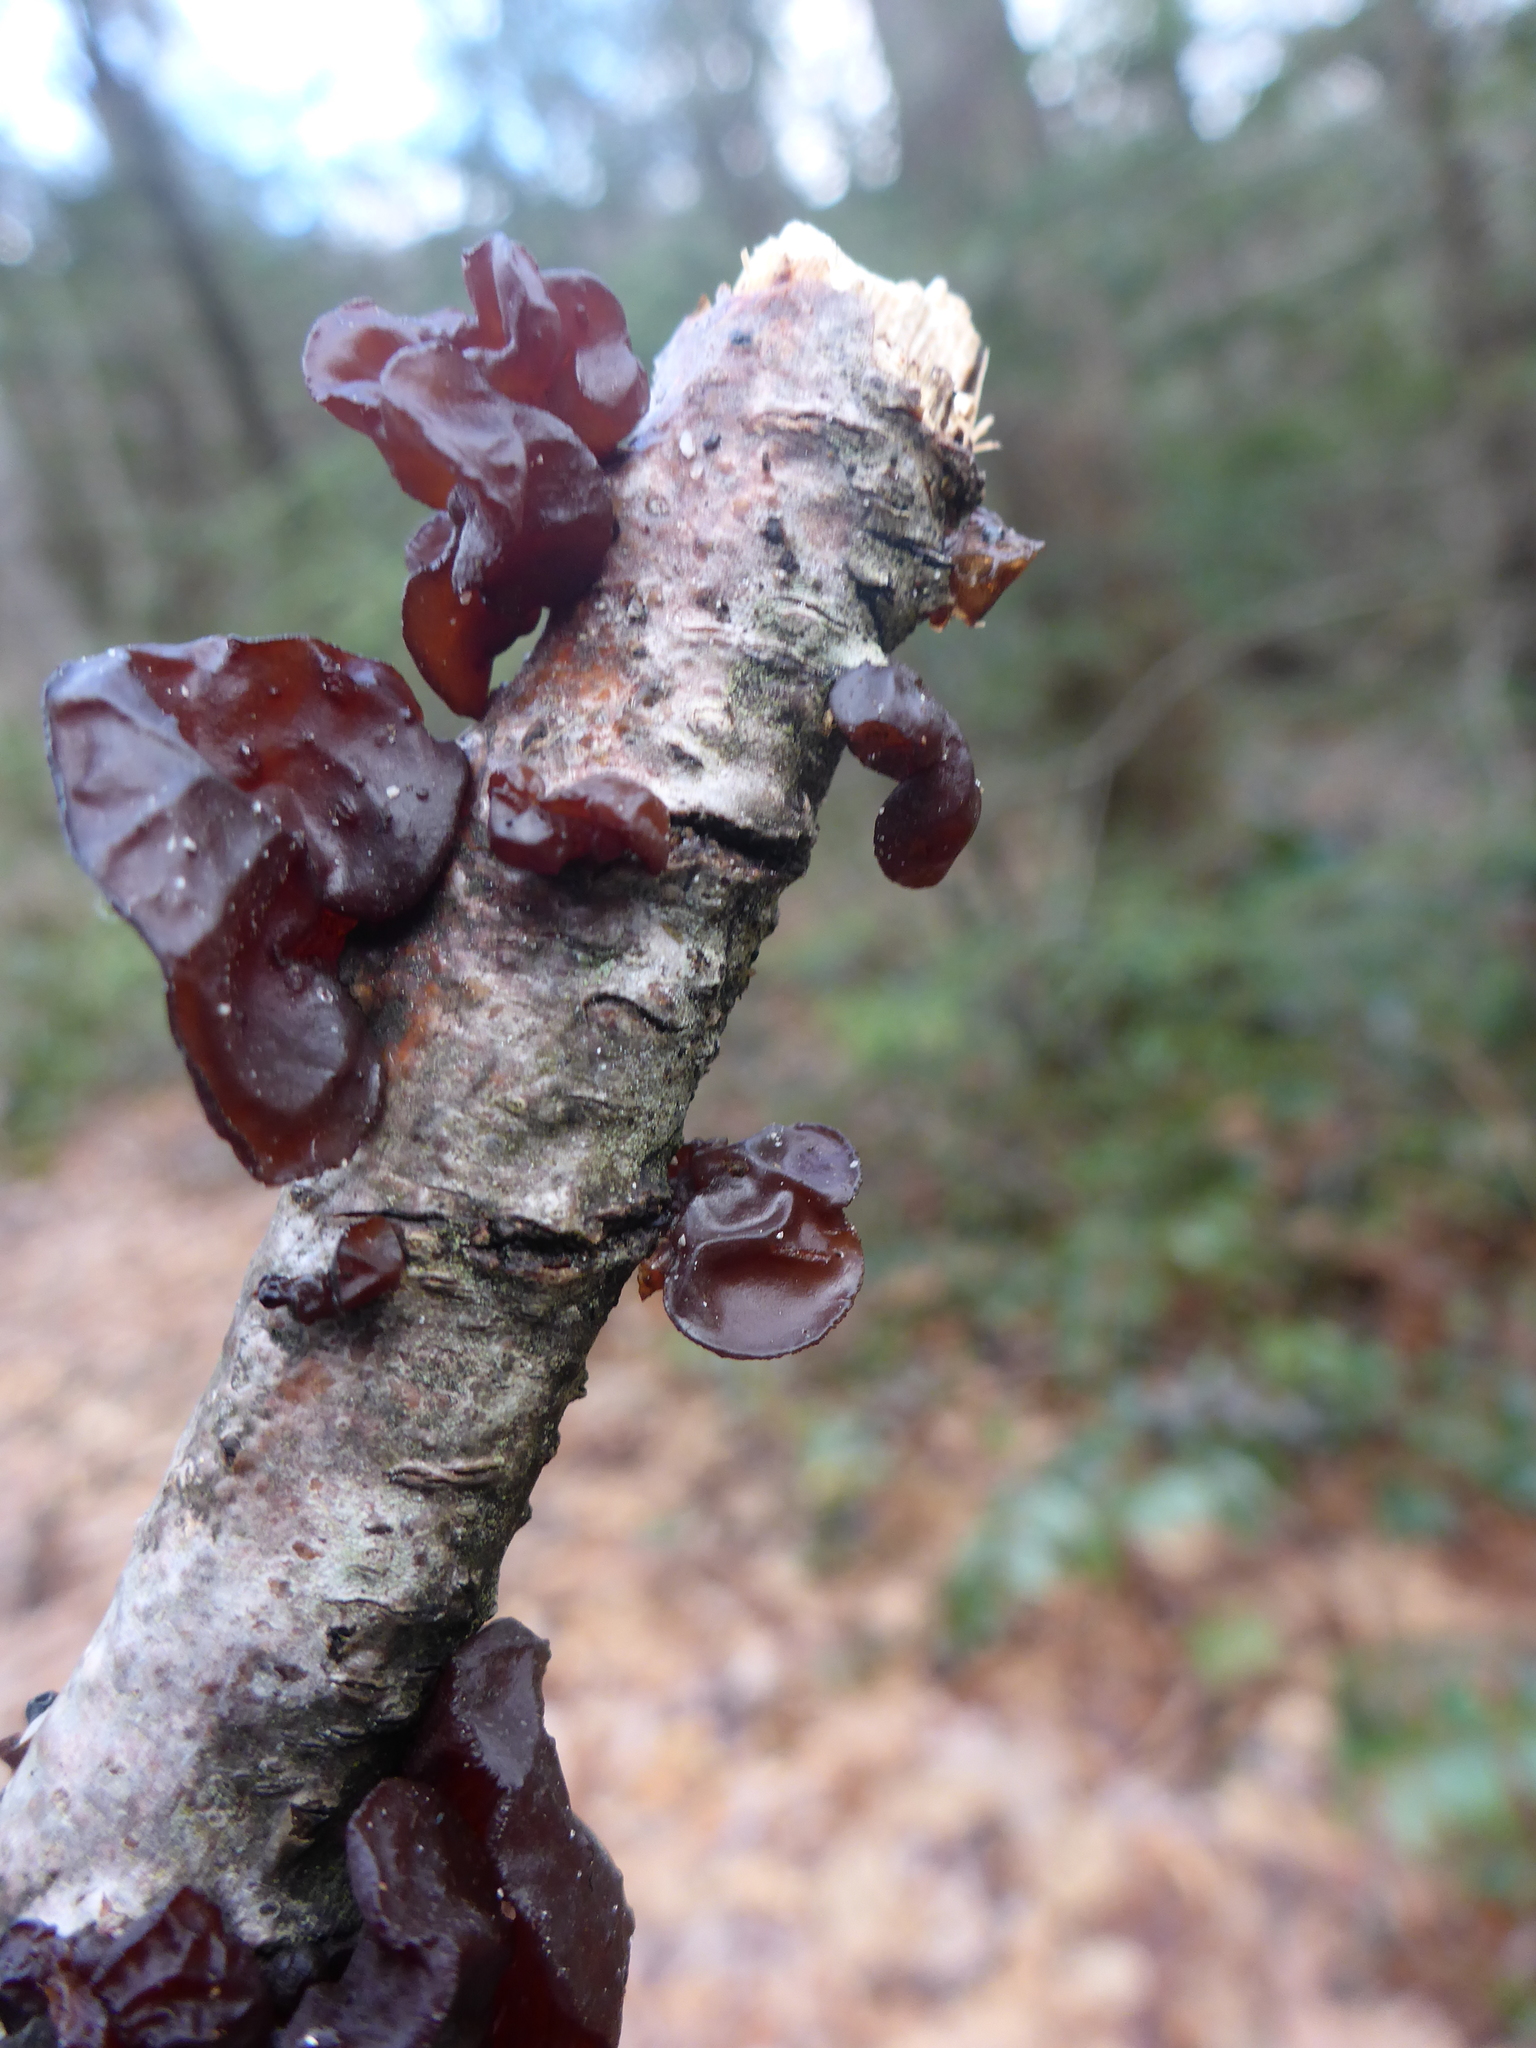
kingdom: Fungi
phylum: Basidiomycota
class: Agaricomycetes
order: Auriculariales
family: Auriculariaceae
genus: Exidia
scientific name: Exidia
